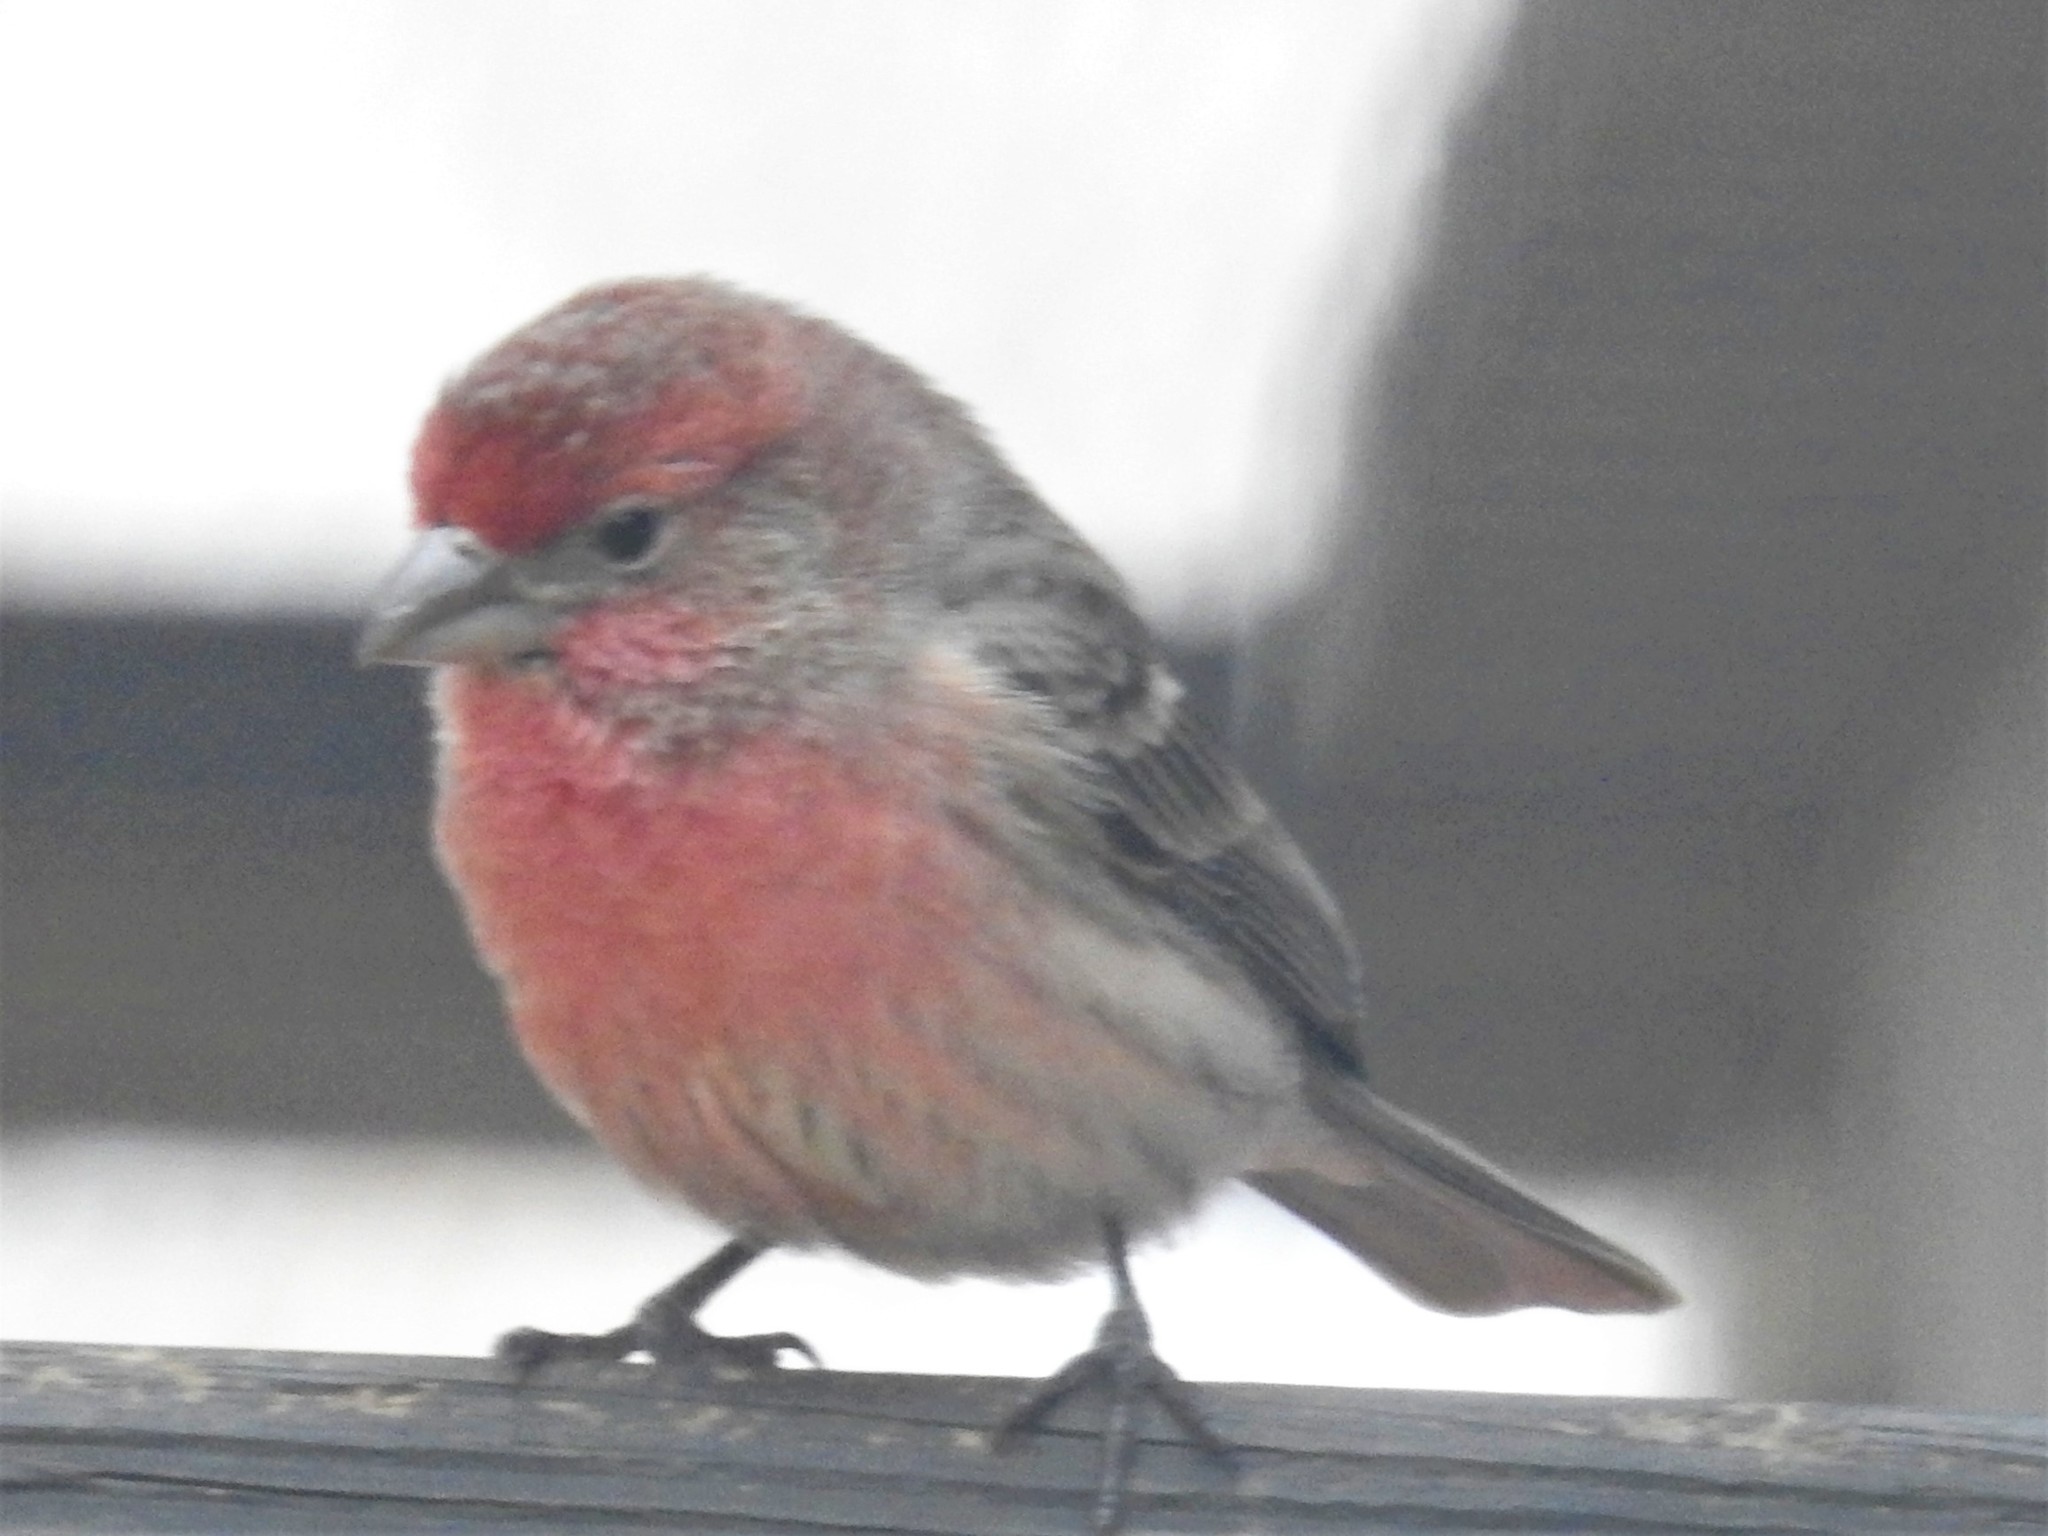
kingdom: Animalia
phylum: Chordata
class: Aves
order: Passeriformes
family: Fringillidae
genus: Haemorhous
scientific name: Haemorhous mexicanus
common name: House finch
